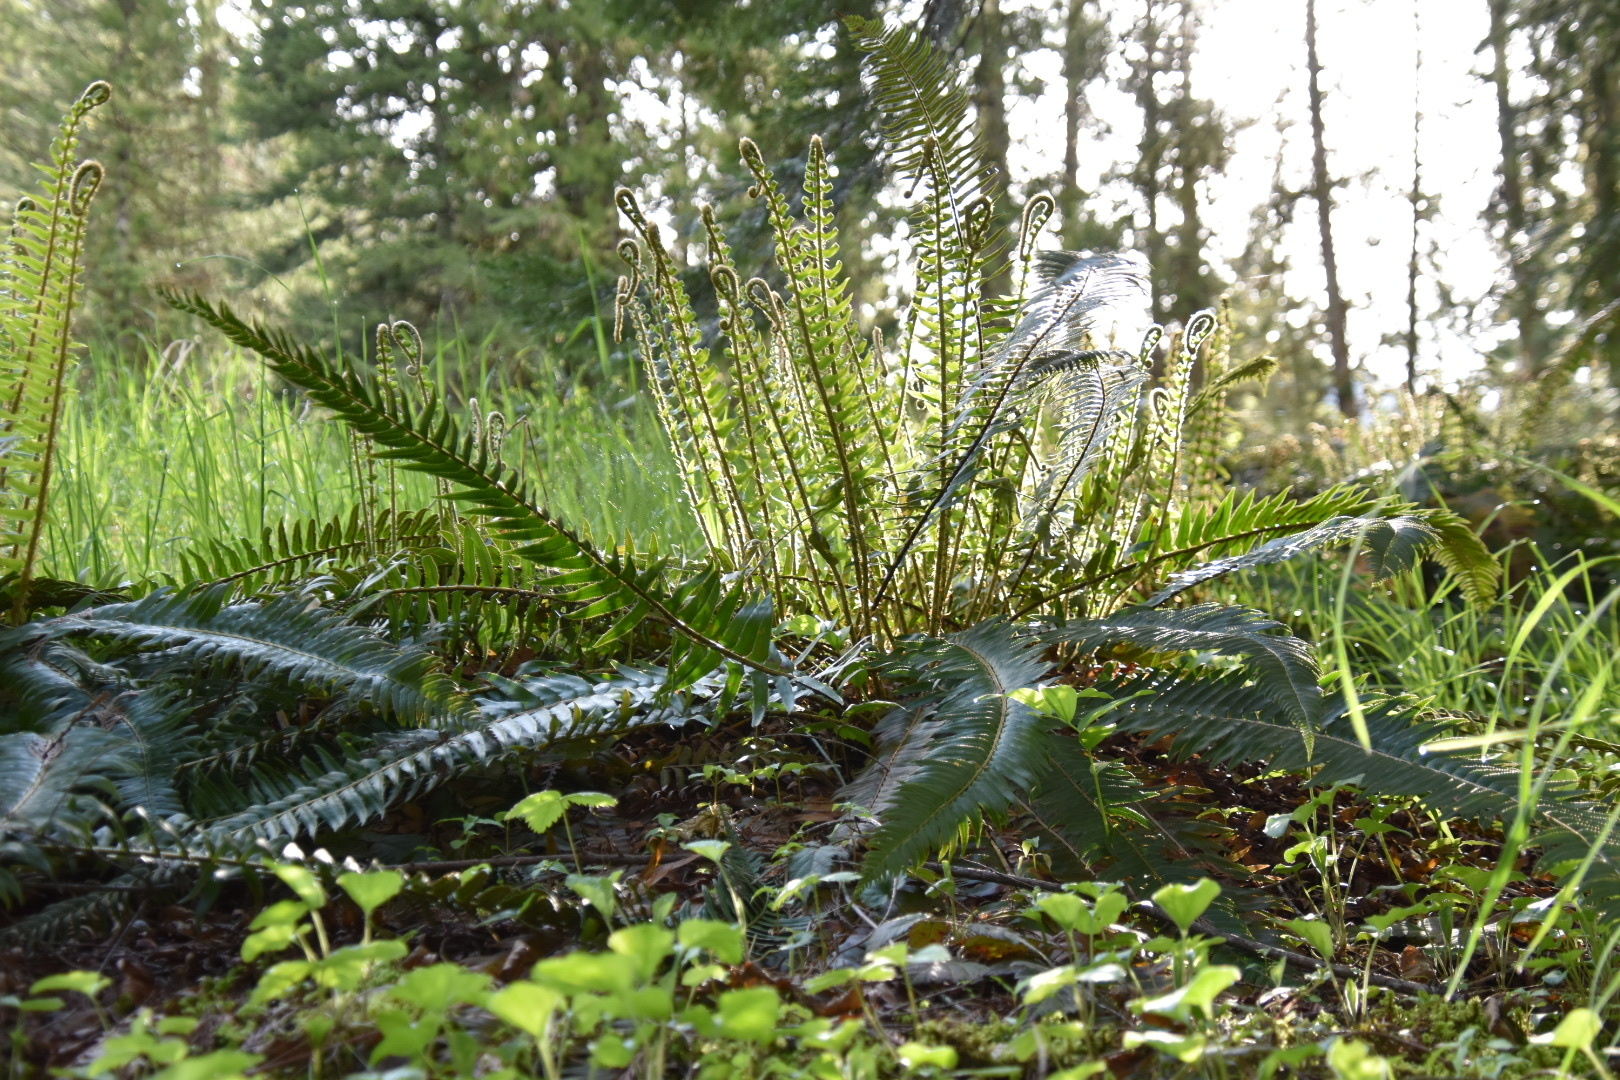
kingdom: Plantae
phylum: Tracheophyta
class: Polypodiopsida
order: Polypodiales
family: Dryopteridaceae
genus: Polystichum
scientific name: Polystichum munitum
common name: Western sword-fern
